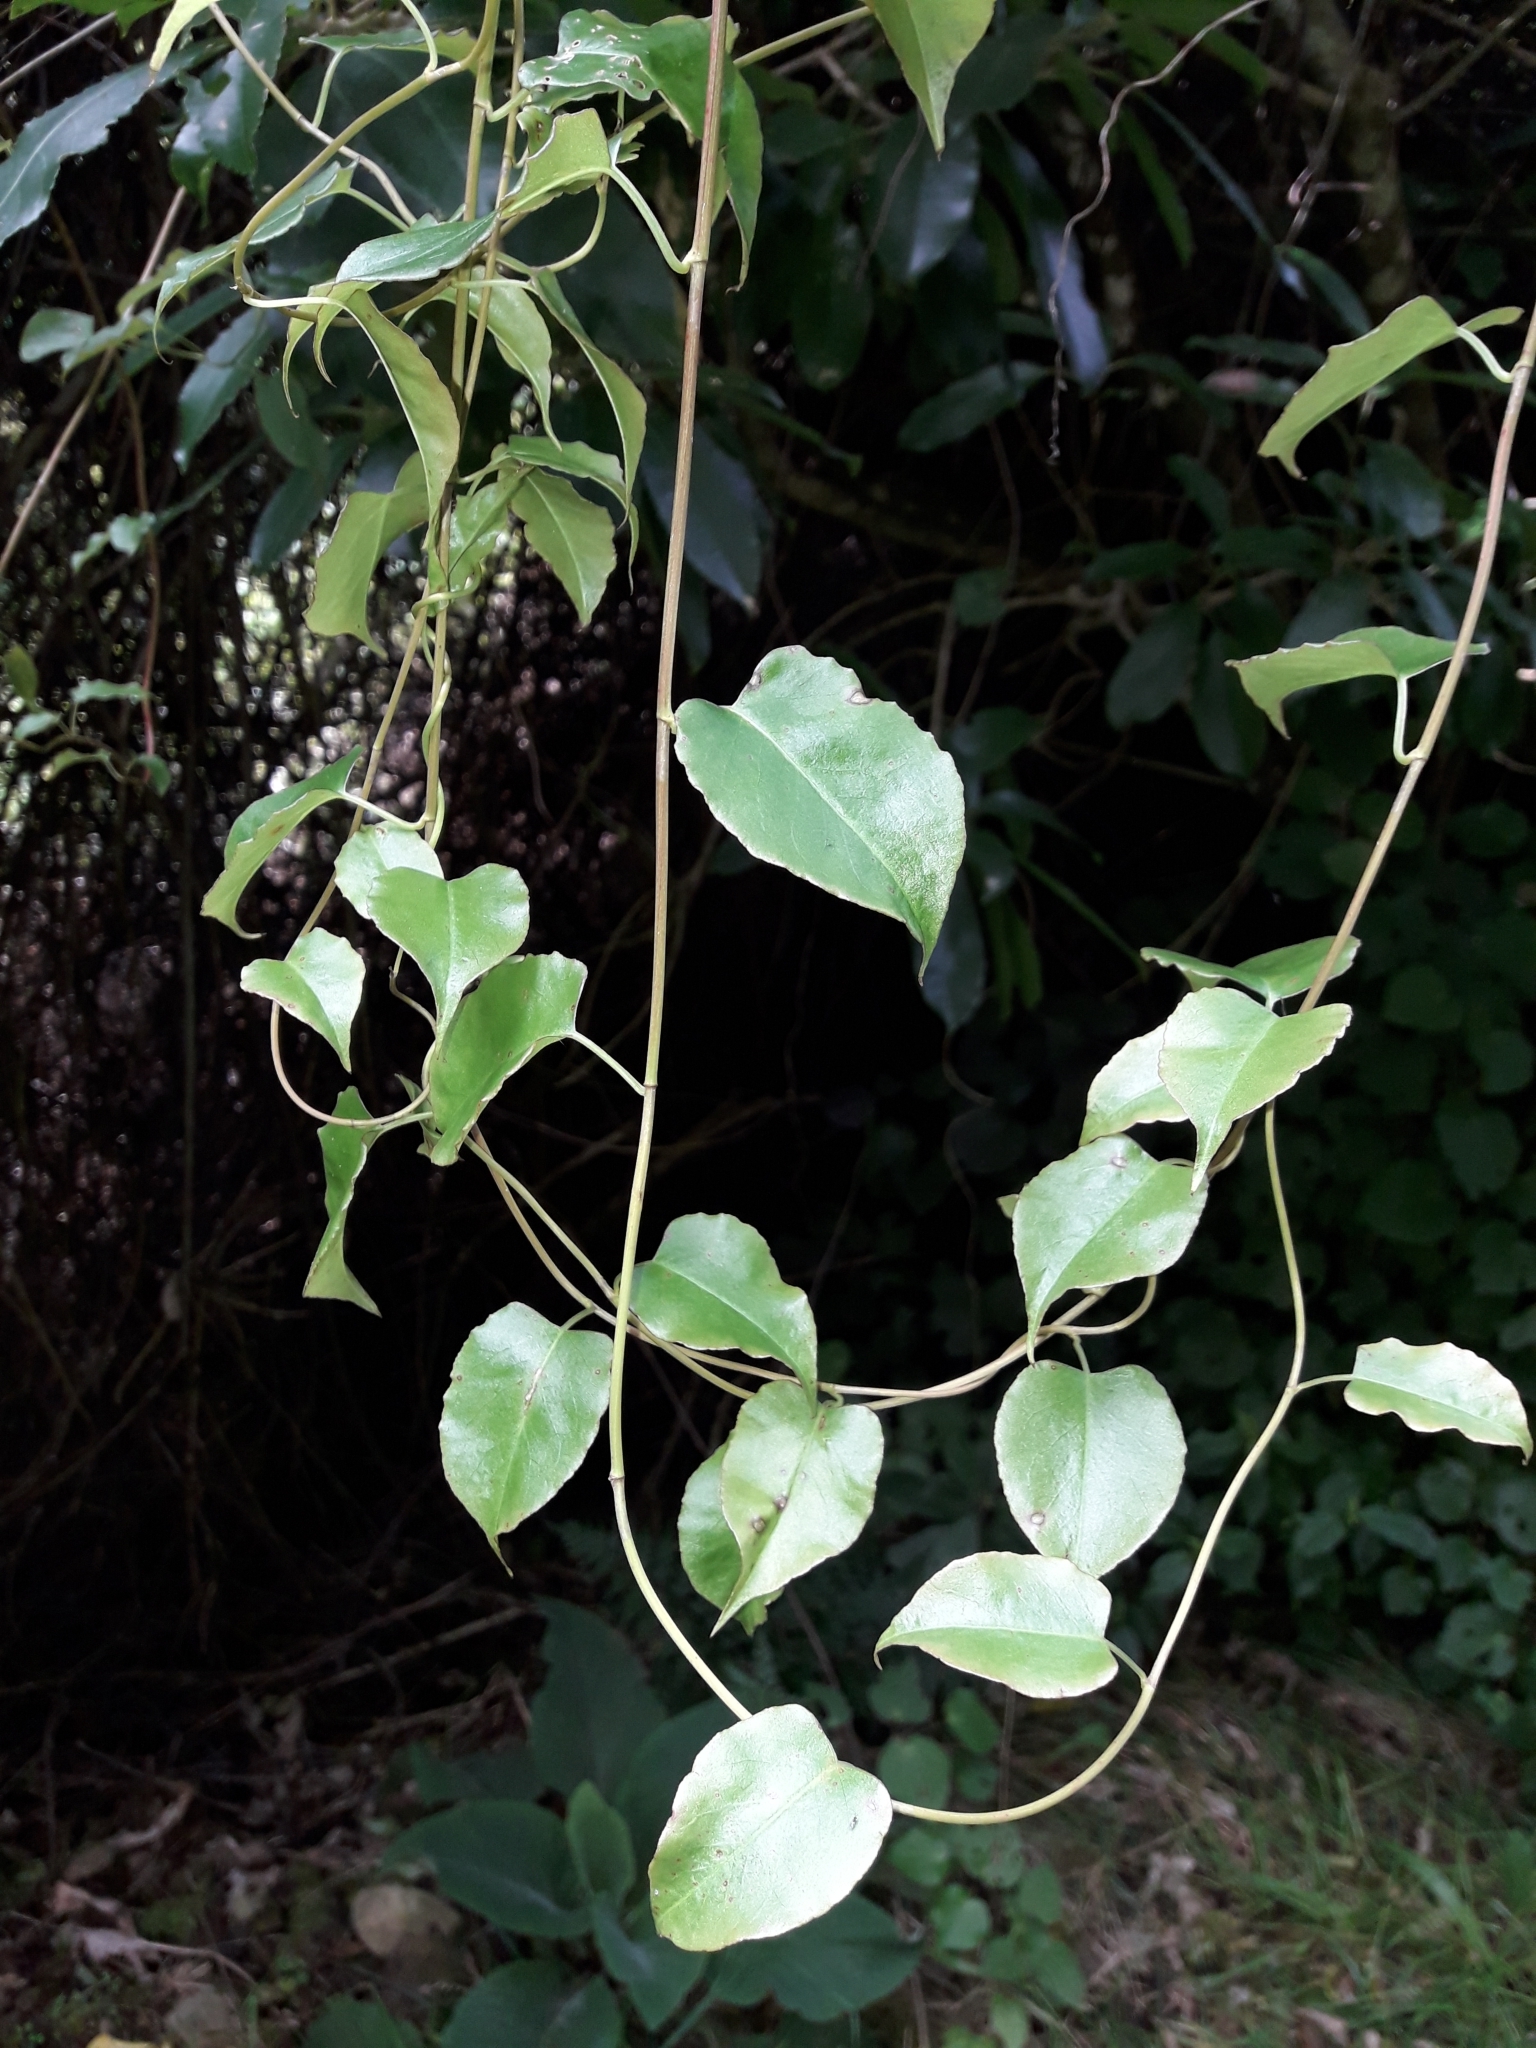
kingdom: Plantae
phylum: Tracheophyta
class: Magnoliopsida
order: Caryophyllales
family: Polygonaceae
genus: Muehlenbeckia
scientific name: Muehlenbeckia australis
